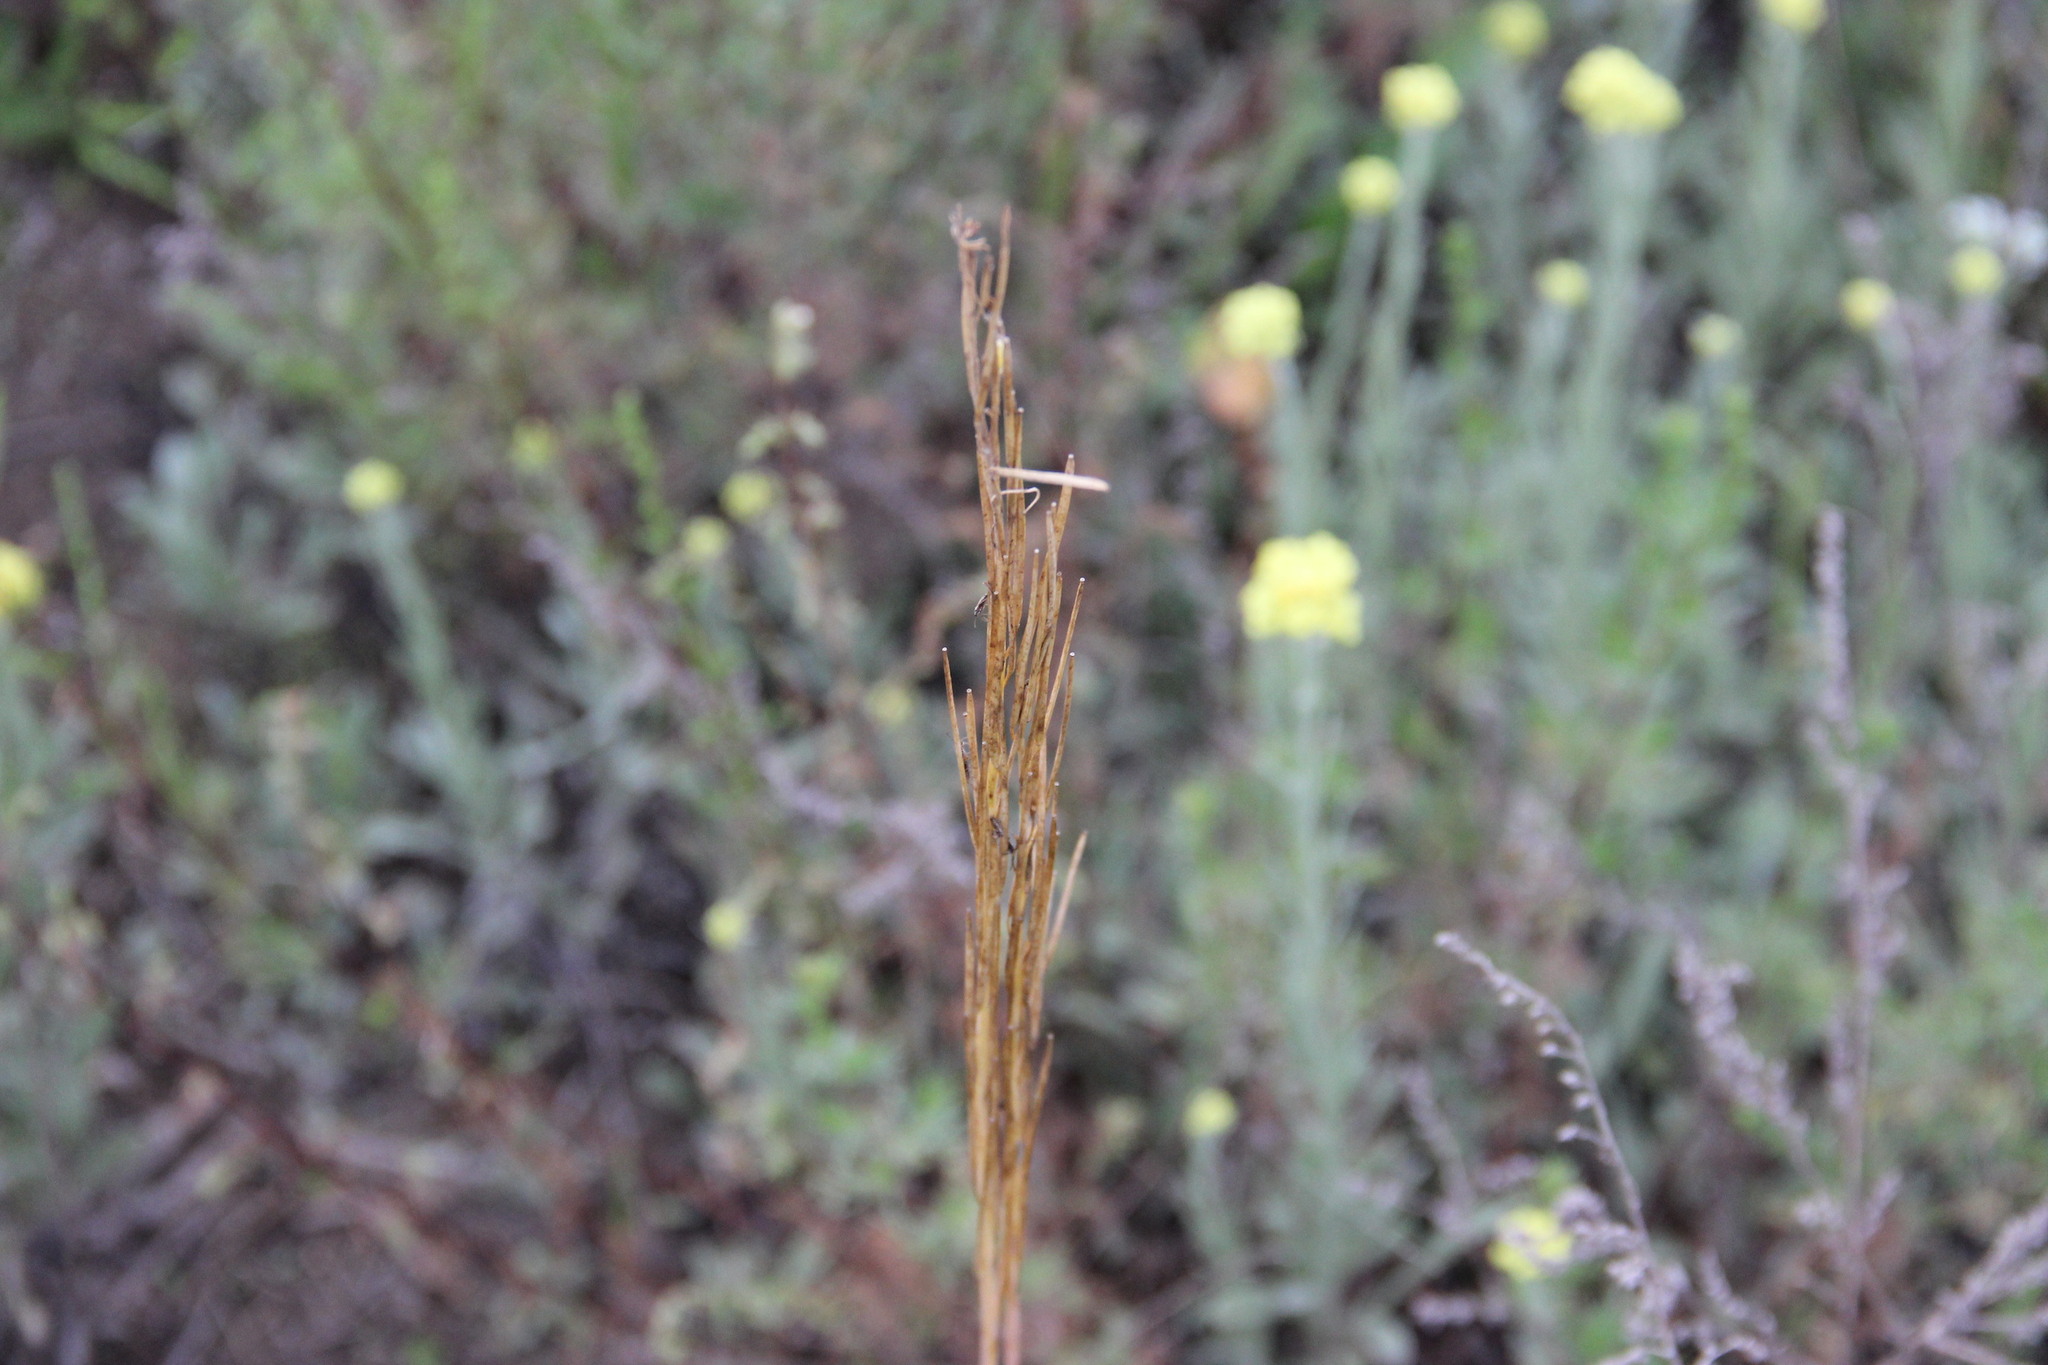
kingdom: Plantae
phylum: Tracheophyta
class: Magnoliopsida
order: Brassicales
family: Brassicaceae
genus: Turritis
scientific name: Turritis glabra
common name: Tower rockcress
